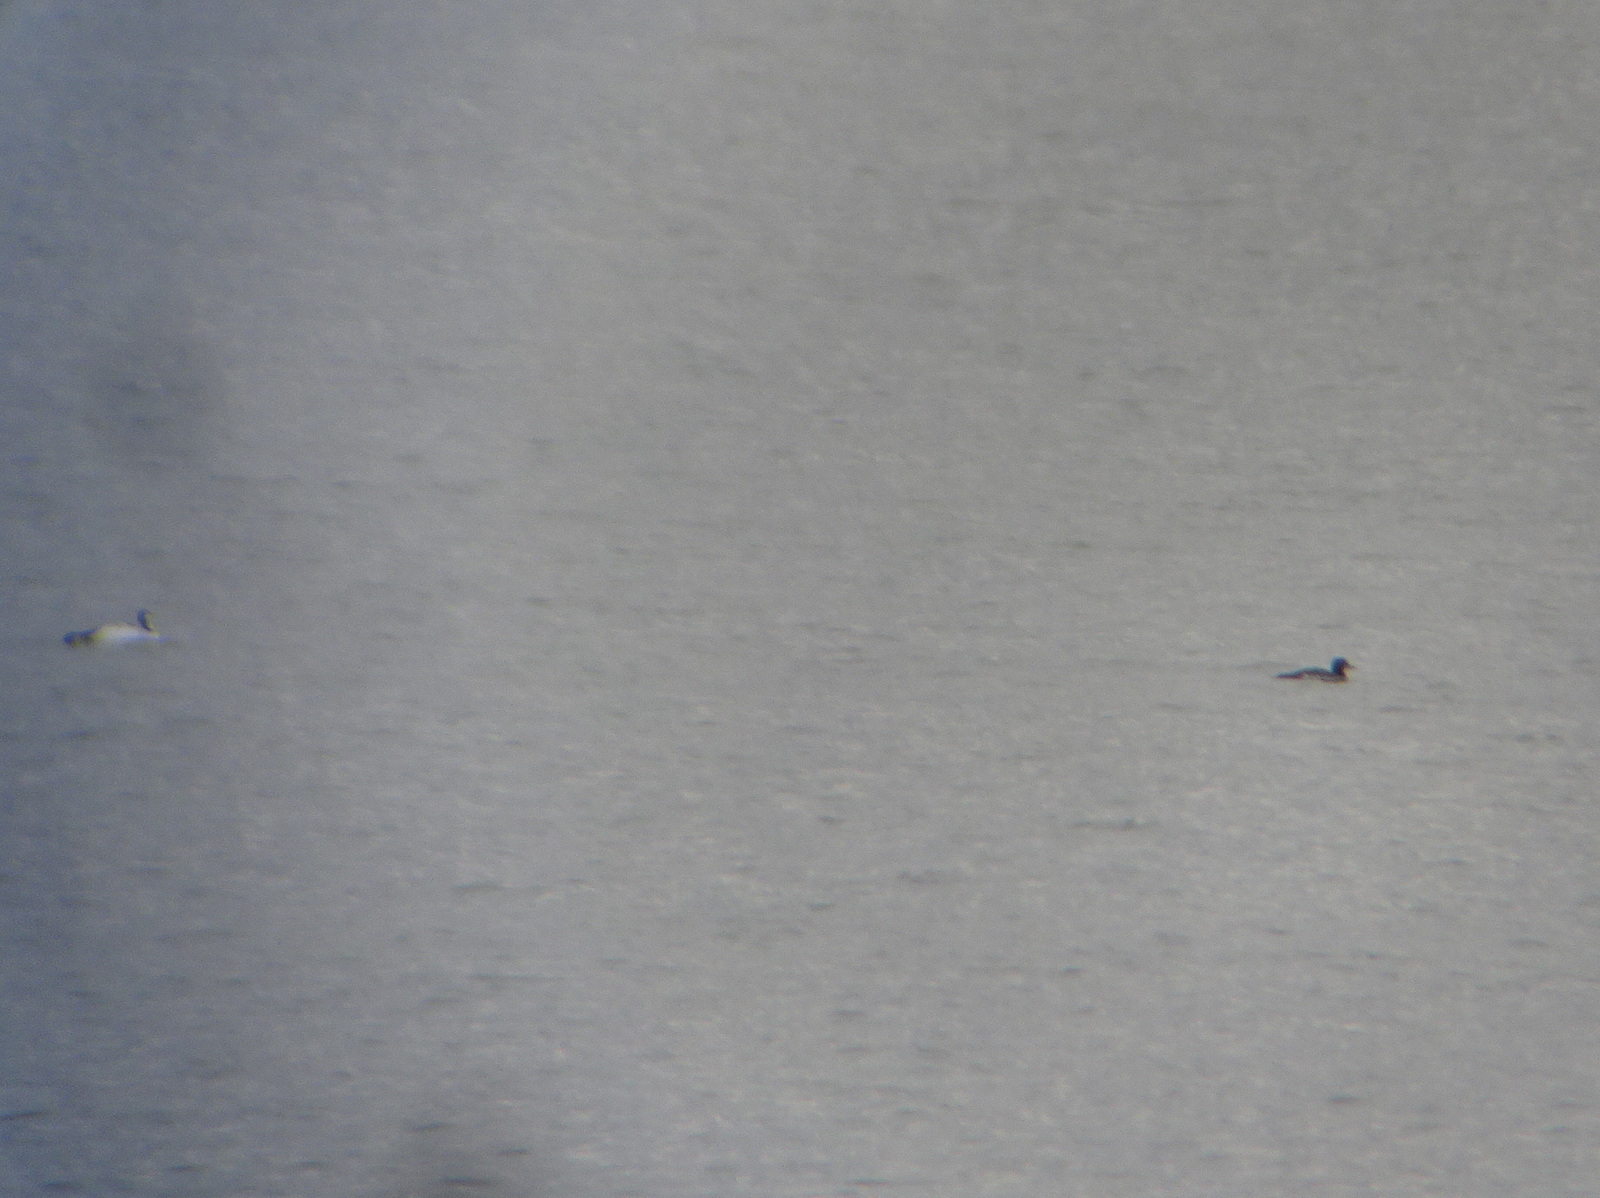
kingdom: Animalia
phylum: Chordata
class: Aves
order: Gaviiformes
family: Gaviidae
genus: Gavia
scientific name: Gavia immer
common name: Common loon
